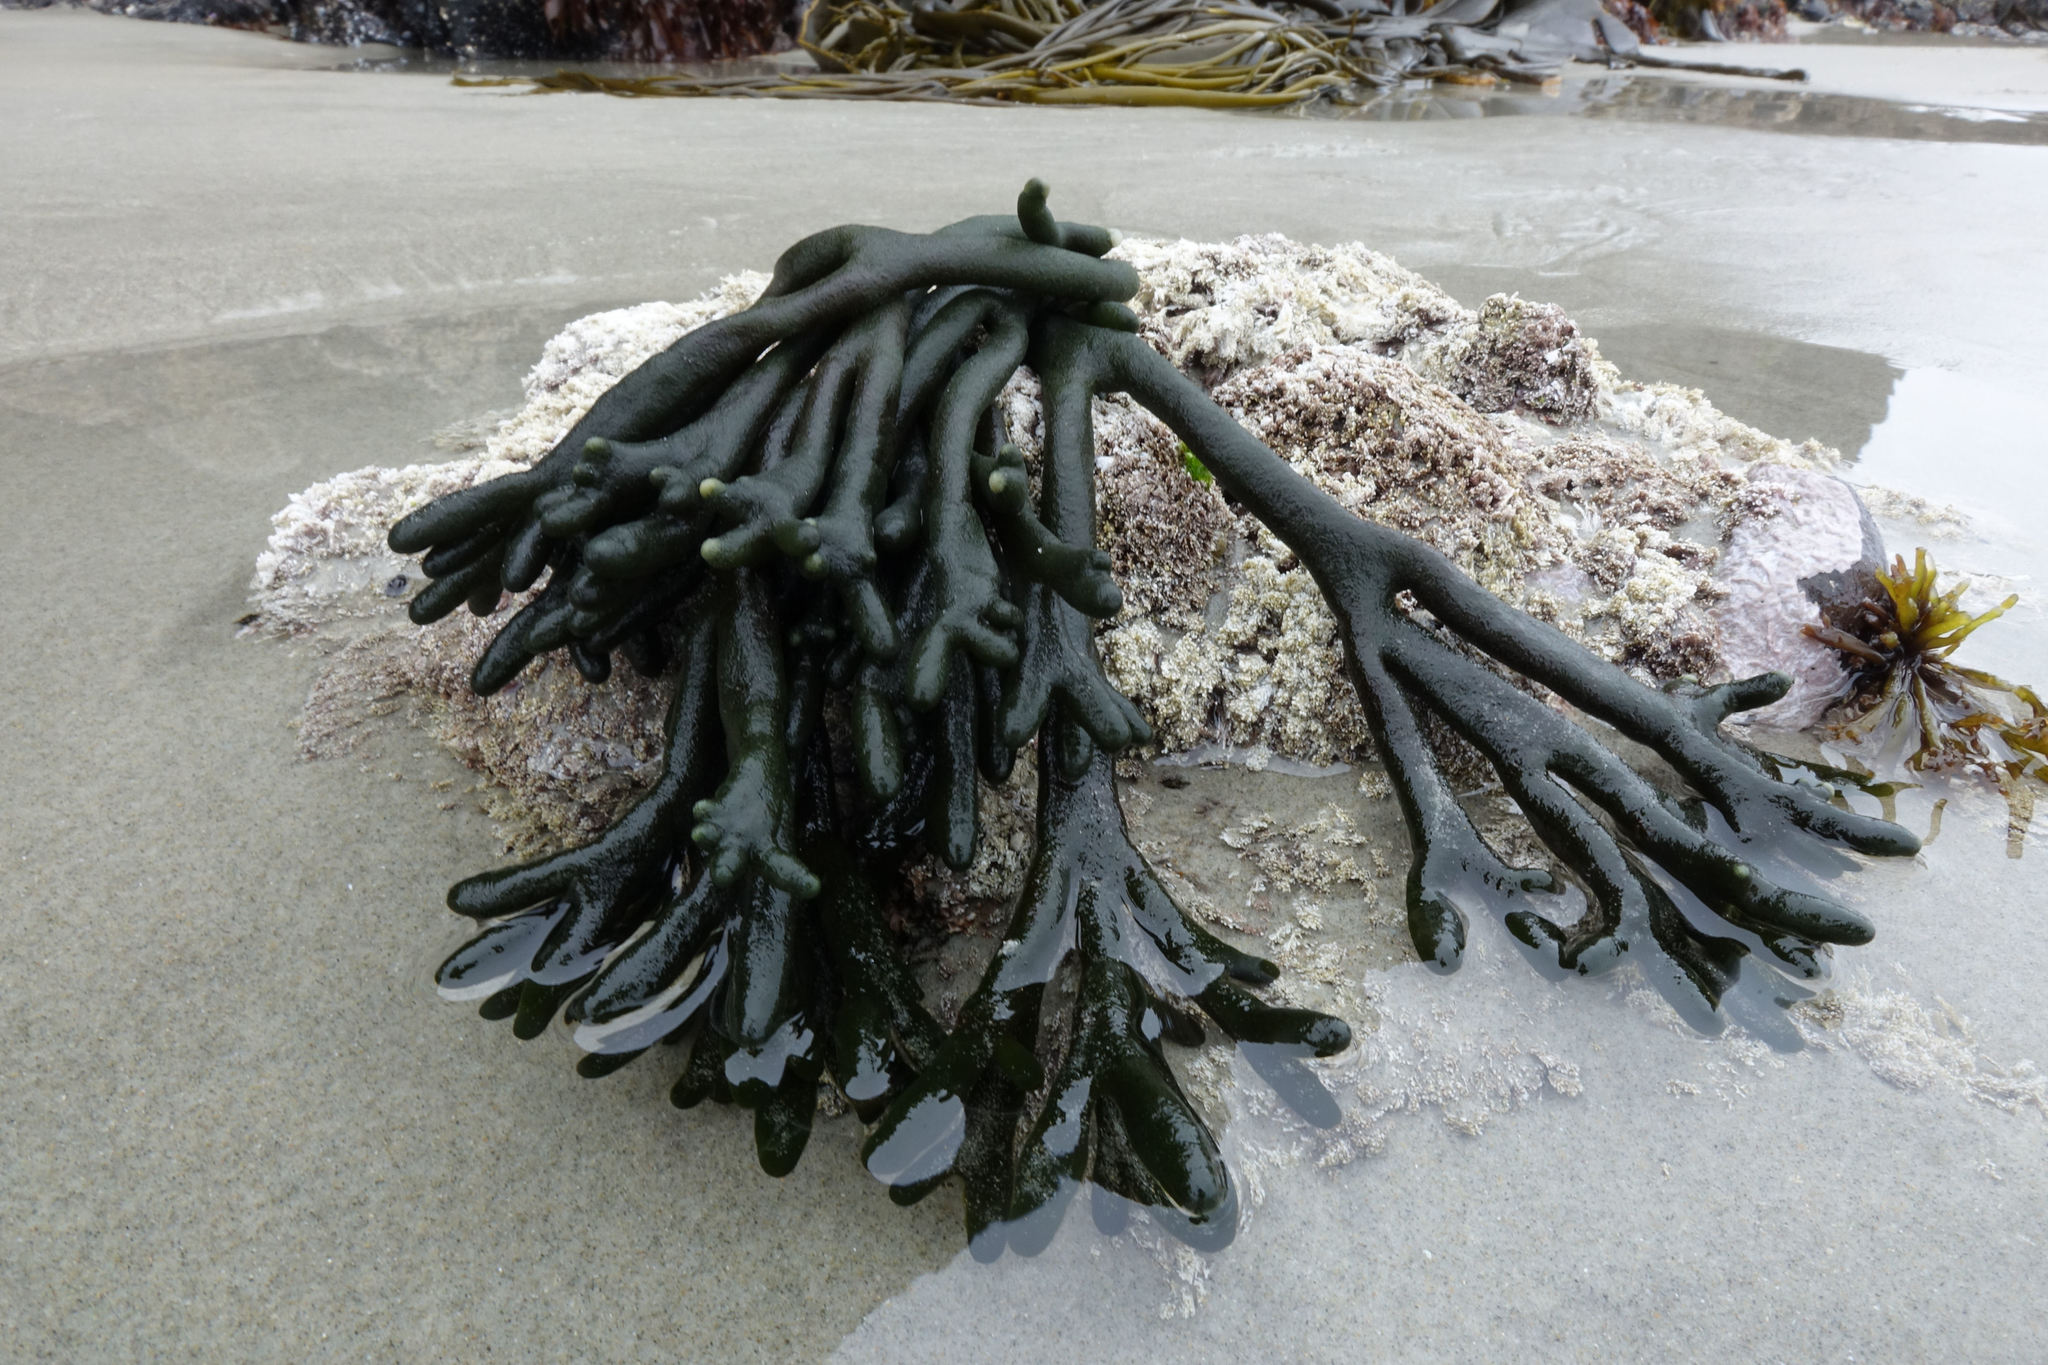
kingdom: Plantae
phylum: Chlorophyta
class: Ulvophyceae
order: Bryopsidales
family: Codiaceae
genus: Codium
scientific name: Codium fragile
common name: Dead man's fingers
